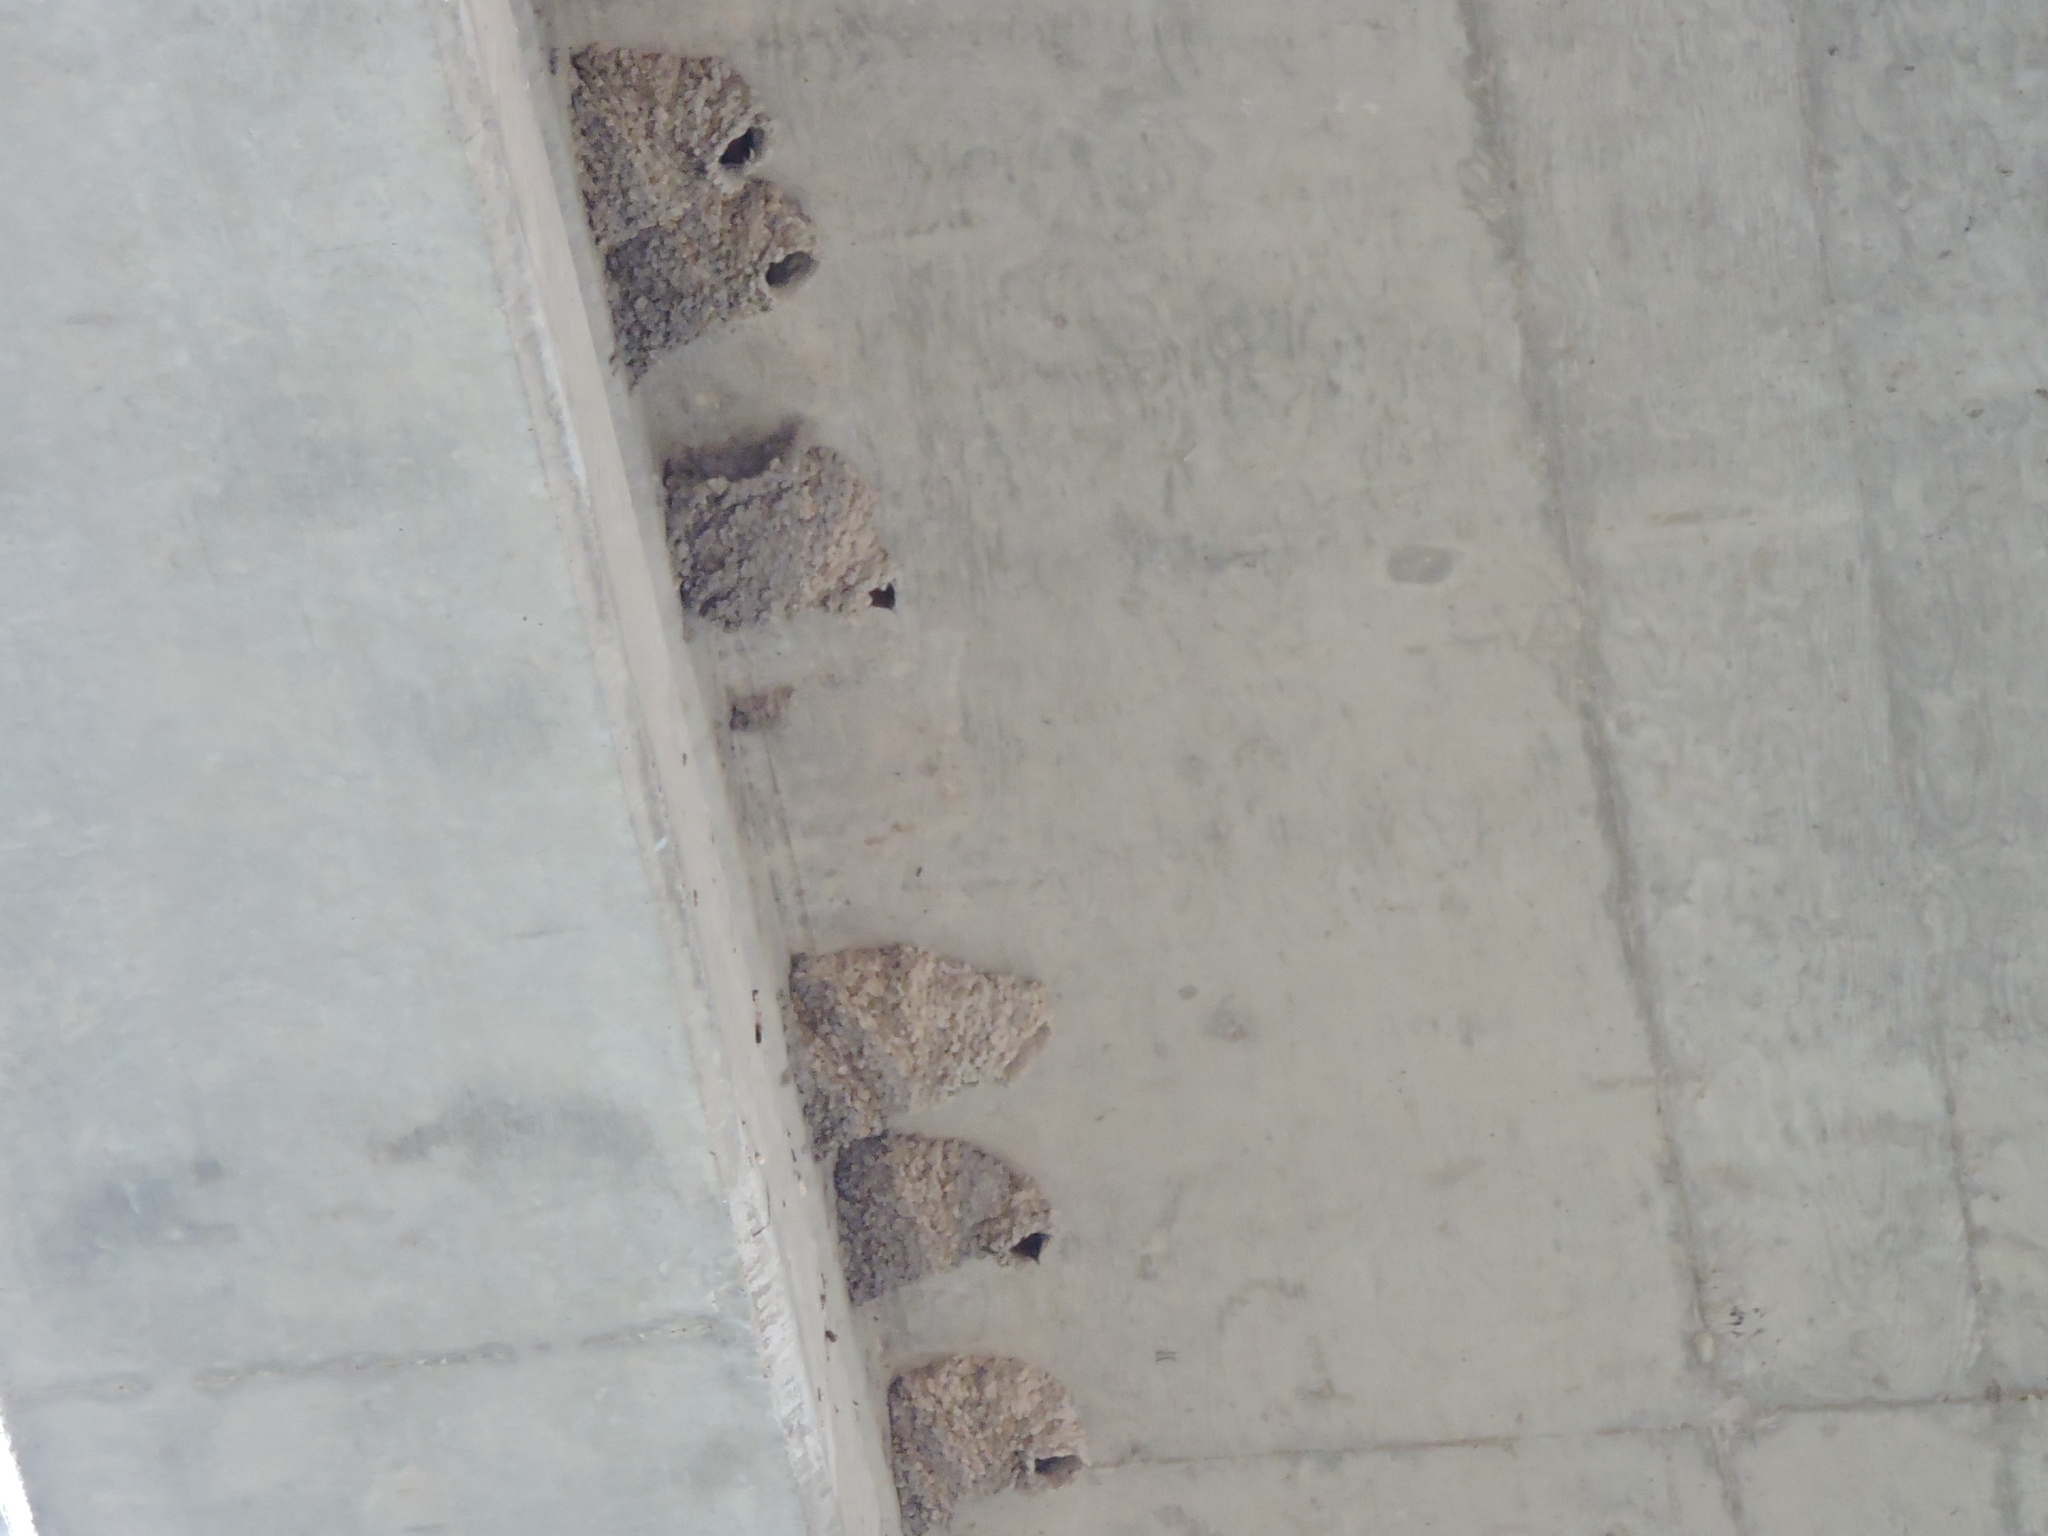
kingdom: Animalia
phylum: Chordata
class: Aves
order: Passeriformes
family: Hirundinidae
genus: Petrochelidon
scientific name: Petrochelidon pyrrhonota
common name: American cliff swallow
